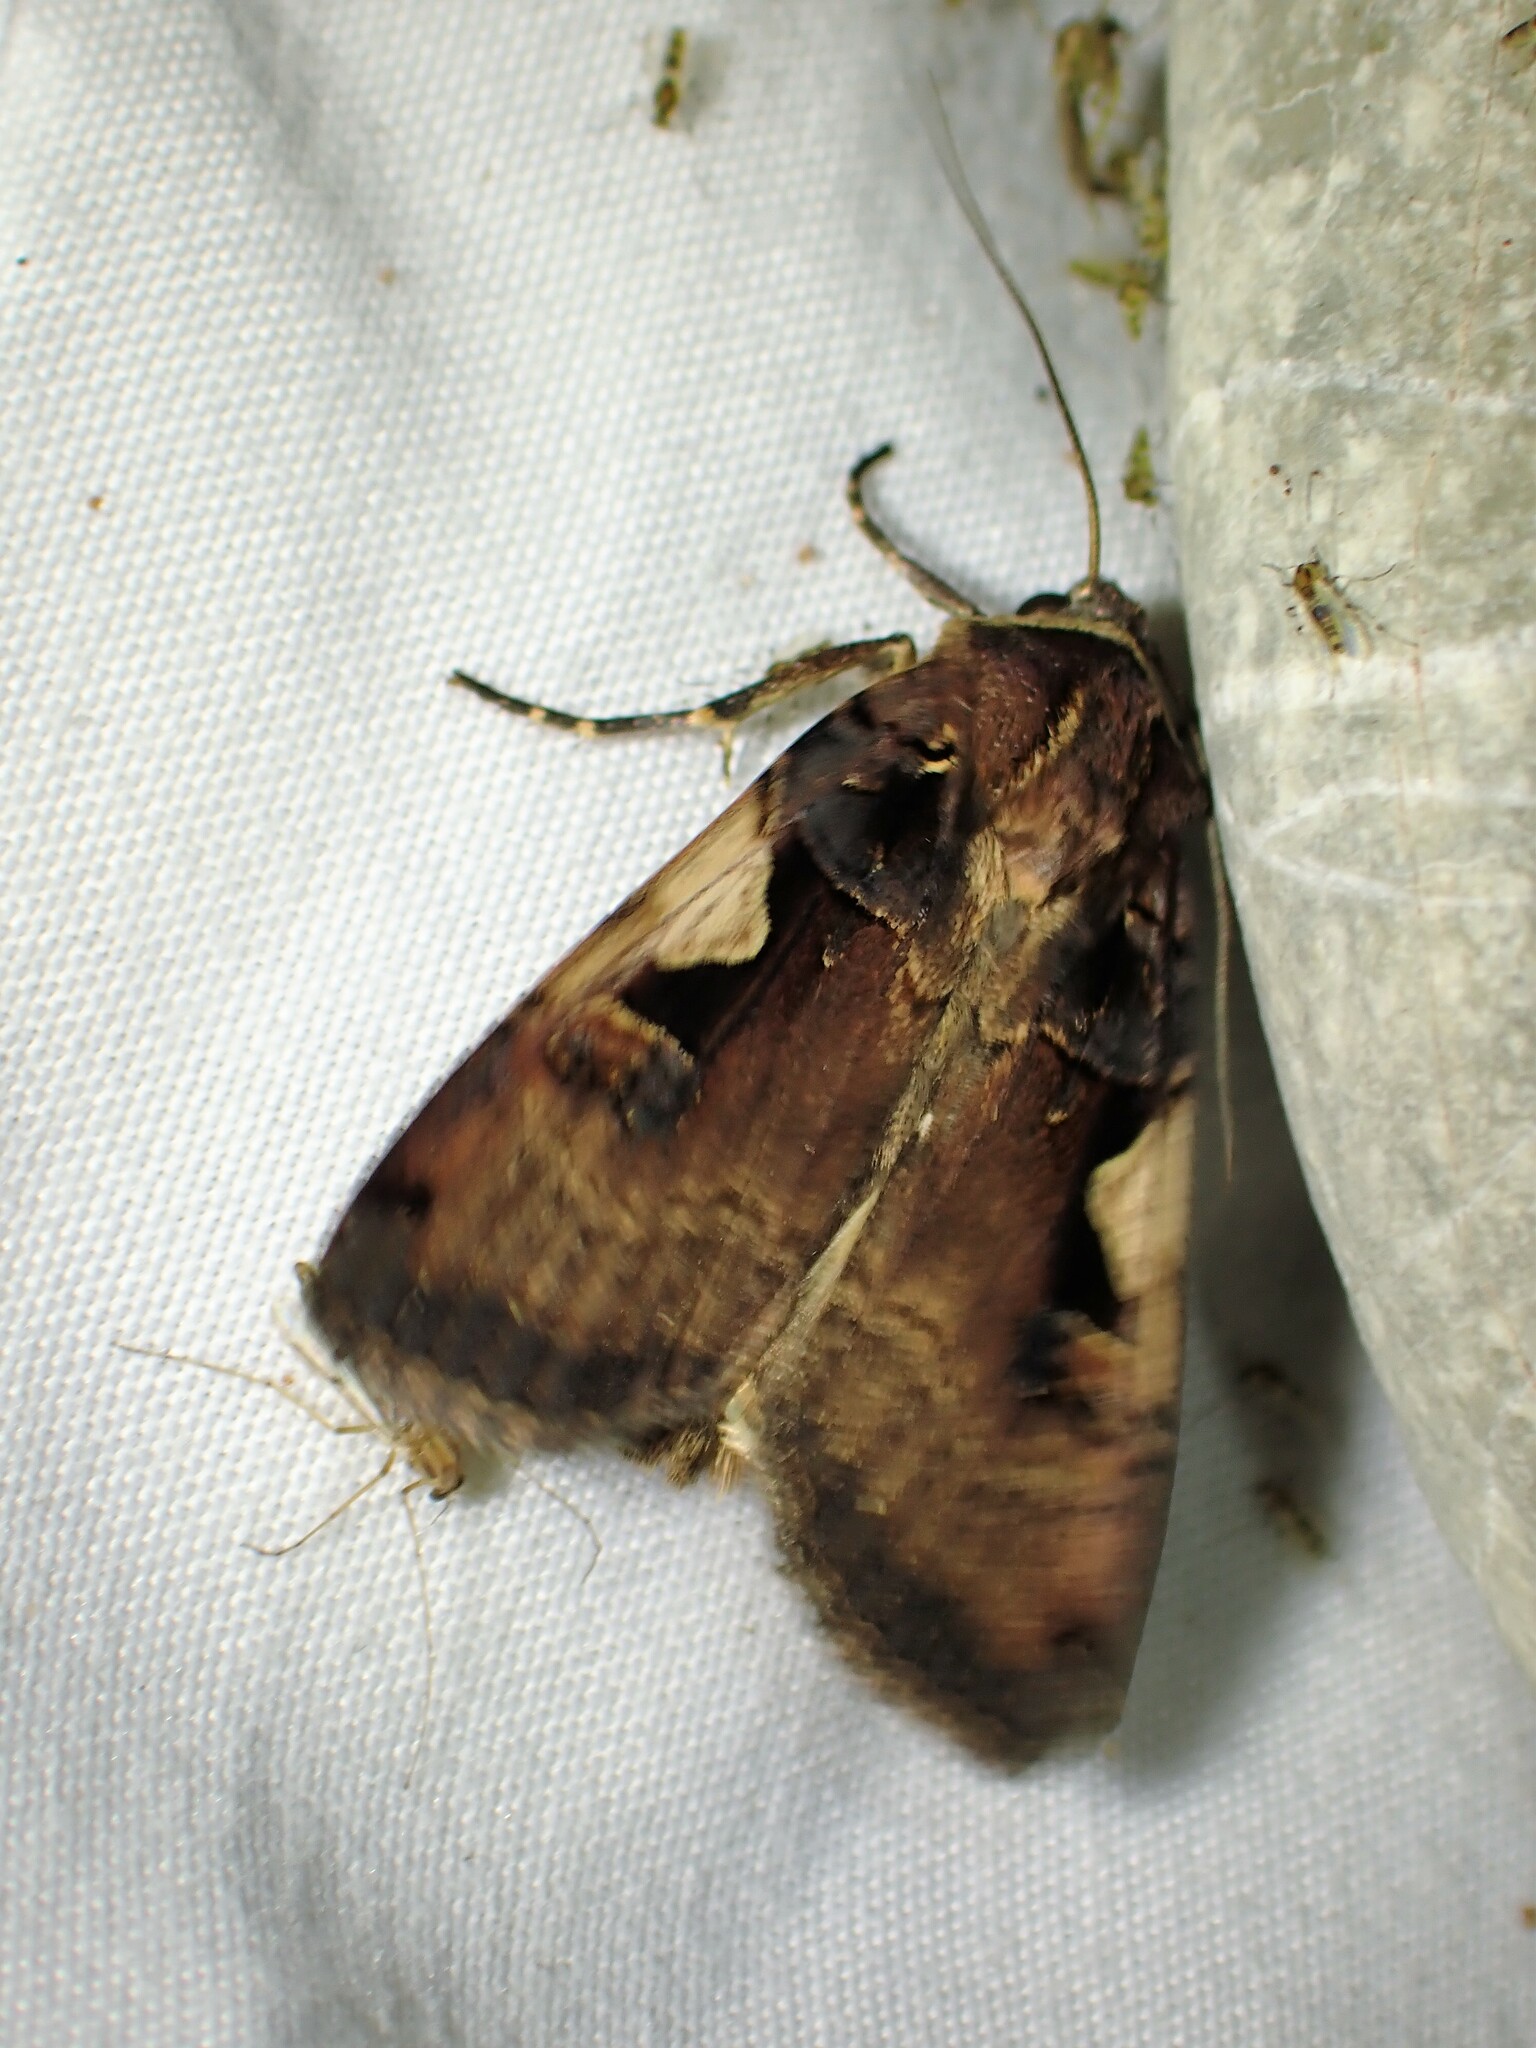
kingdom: Animalia
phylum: Arthropoda
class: Insecta
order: Lepidoptera
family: Noctuidae
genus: Xestia
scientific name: Xestia
